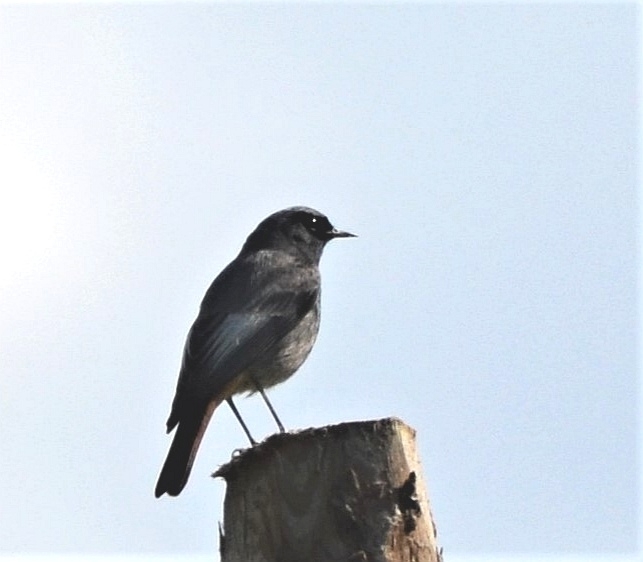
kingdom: Animalia
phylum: Chordata
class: Aves
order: Passeriformes
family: Muscicapidae
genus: Phoenicurus
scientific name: Phoenicurus ochruros
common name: Black redstart
